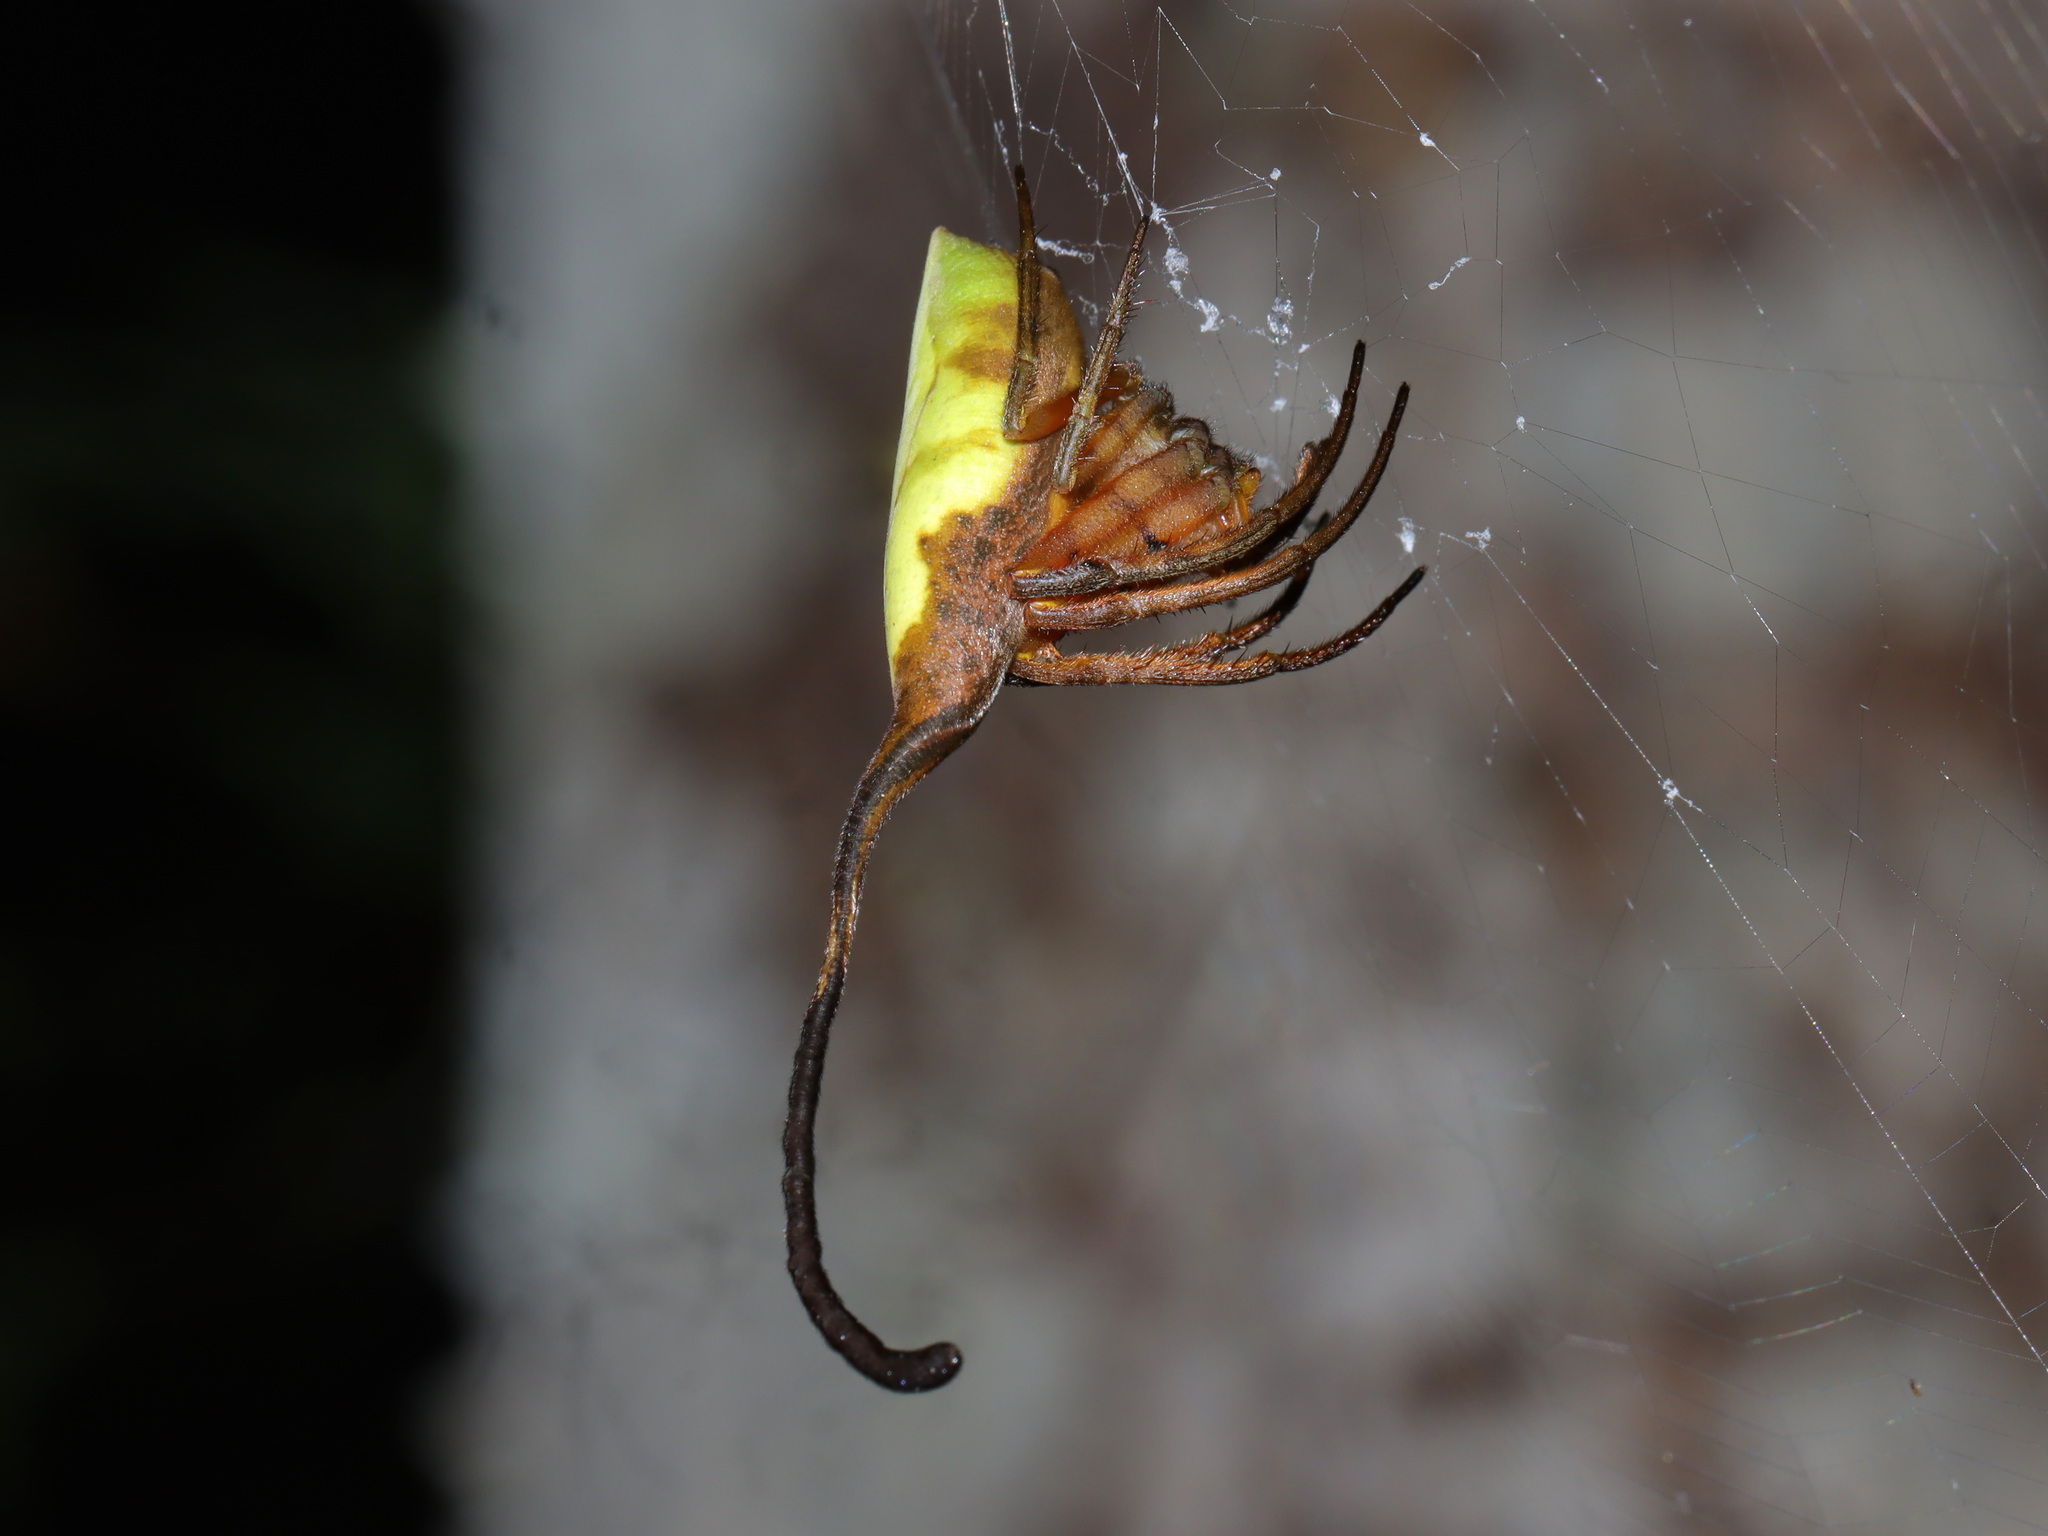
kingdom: Animalia
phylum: Arthropoda
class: Arachnida
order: Araneae
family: Araneidae
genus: Poltys
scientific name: Poltys mouhoti
